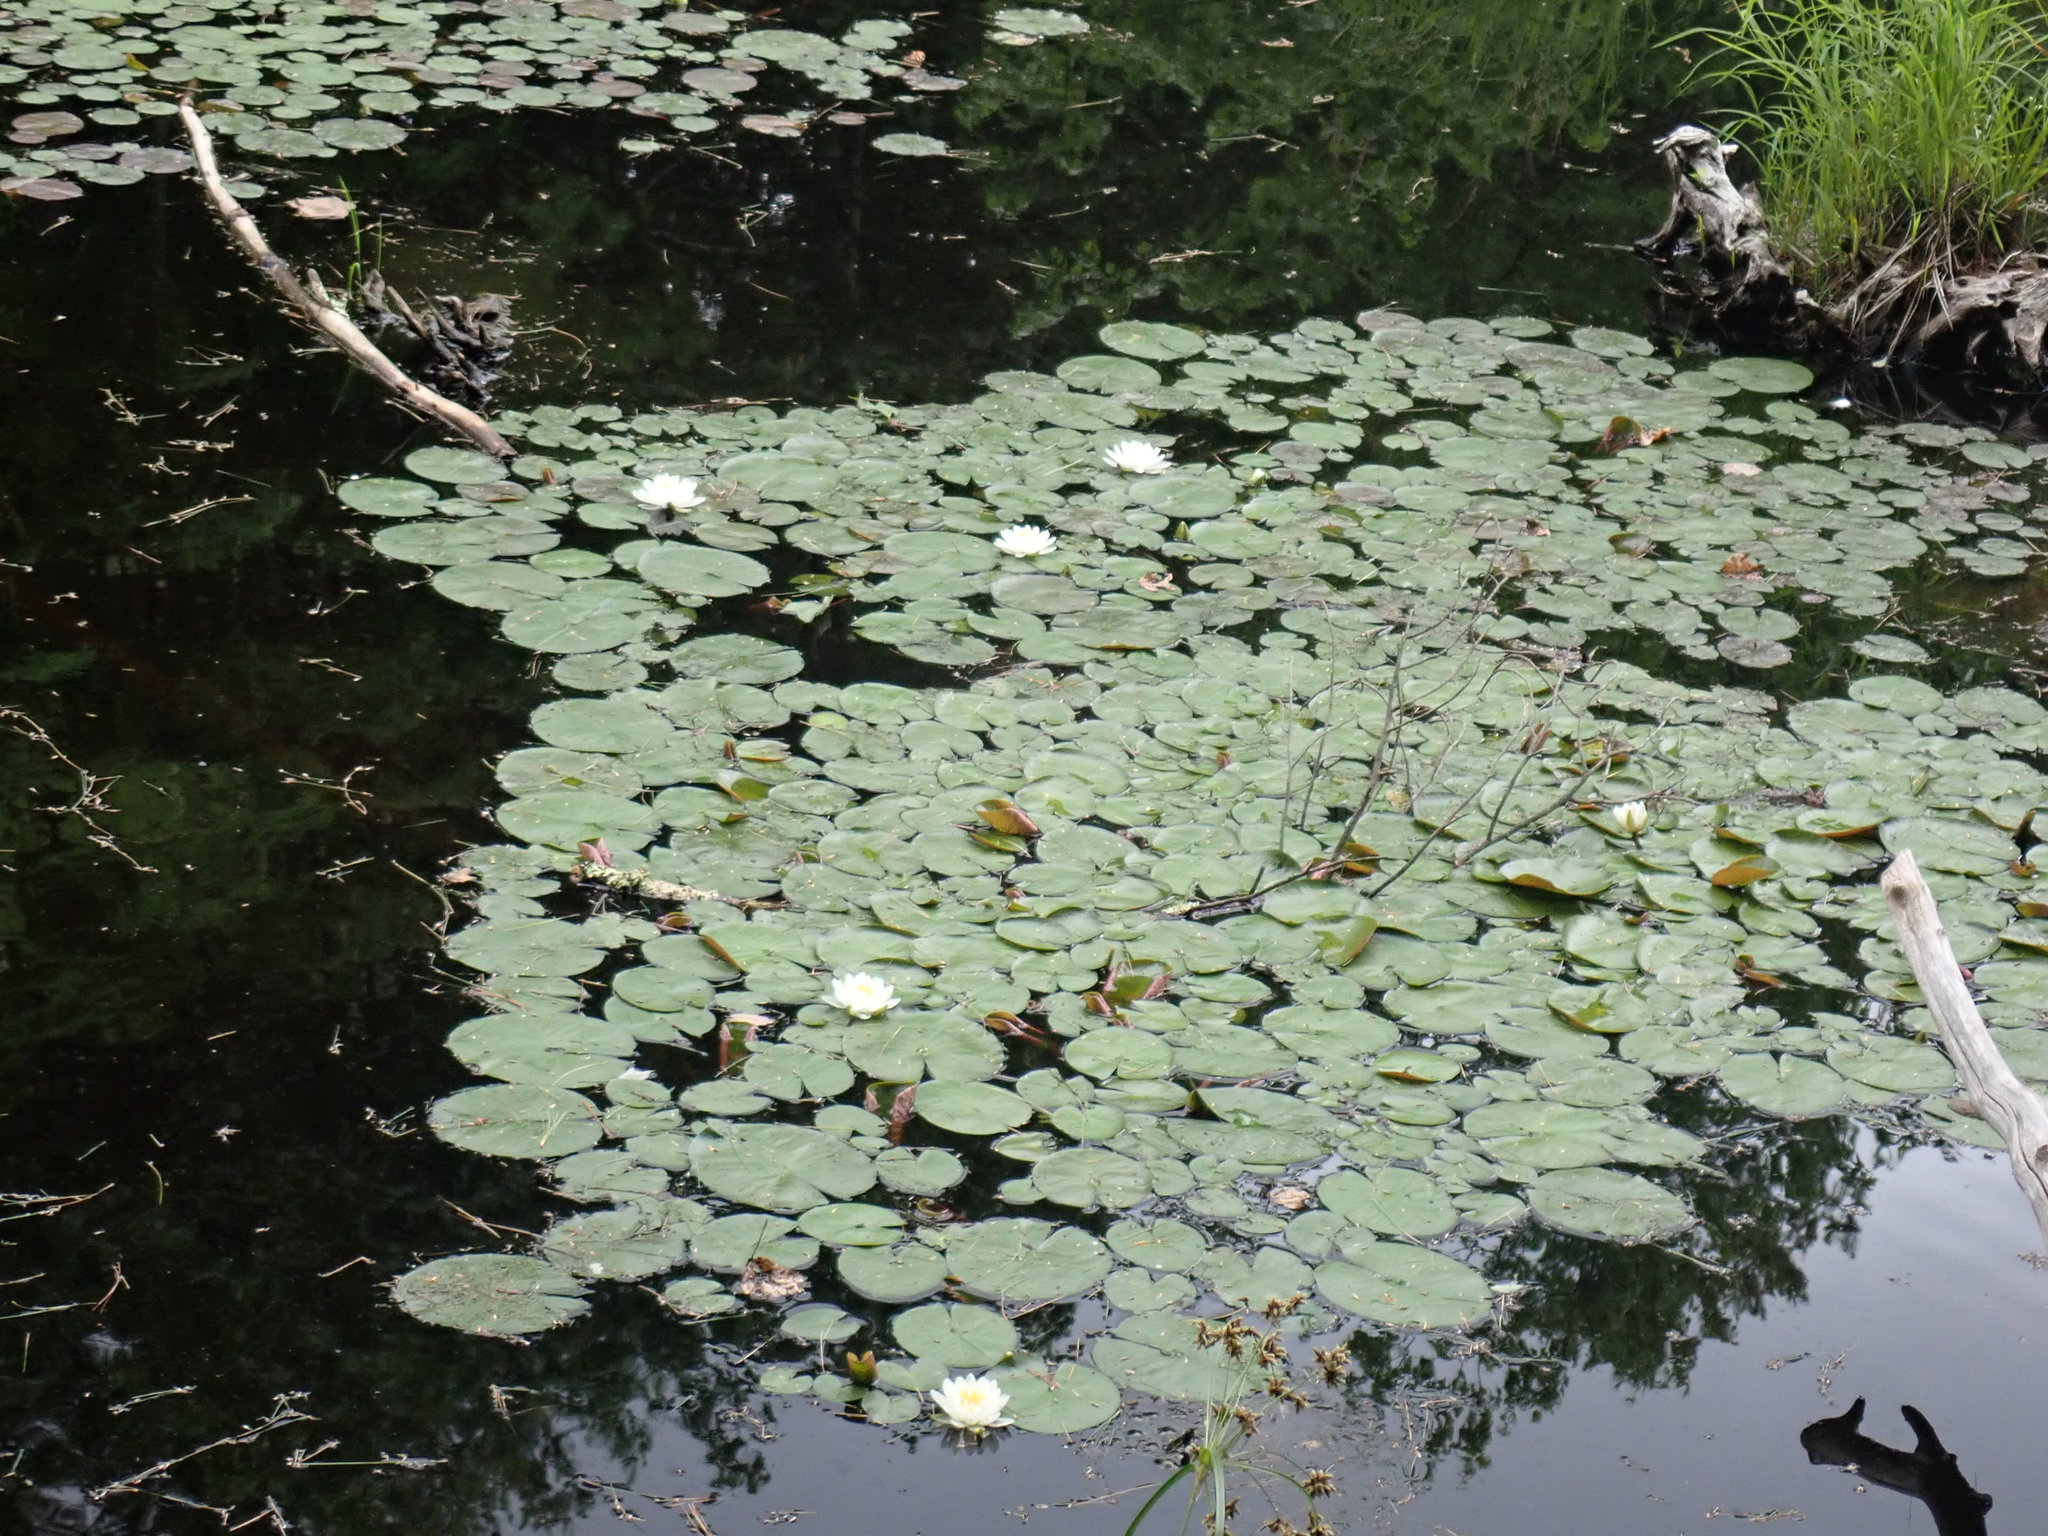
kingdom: Plantae
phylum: Tracheophyta
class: Magnoliopsida
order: Nymphaeales
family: Nymphaeaceae
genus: Nymphaea
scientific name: Nymphaea odorata
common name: Fragrant water-lily
